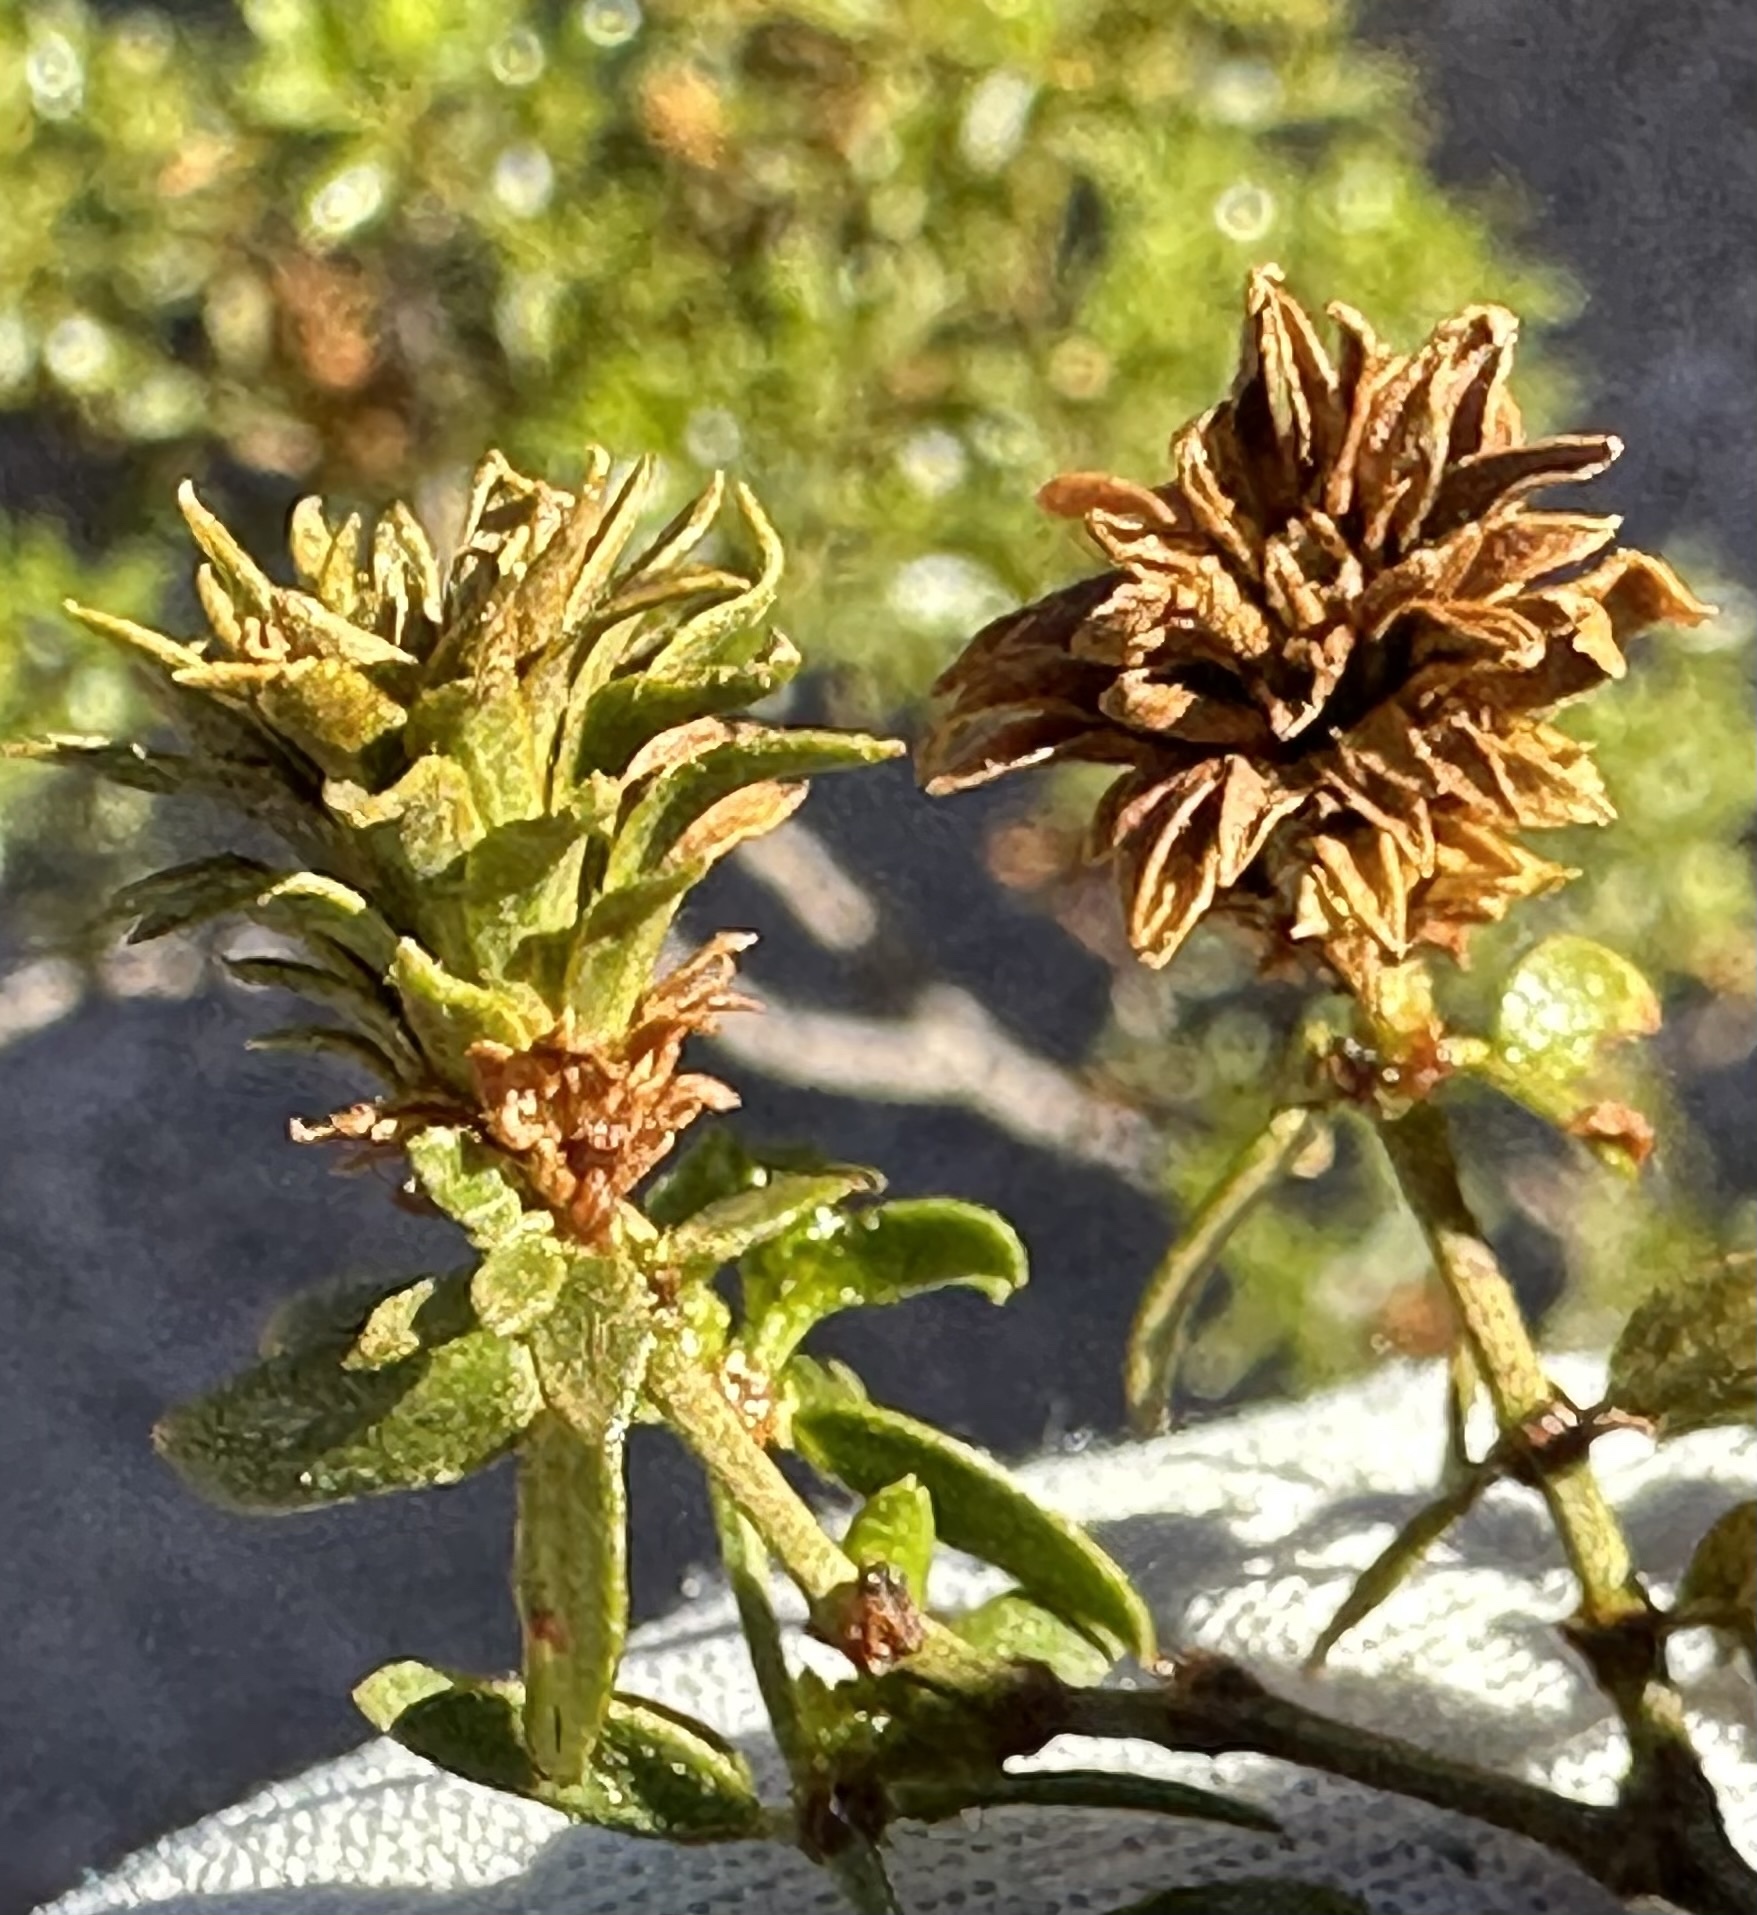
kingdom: Animalia
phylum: Arthropoda
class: Insecta
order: Diptera
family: Cecidomyiidae
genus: Asphondylia
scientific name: Asphondylia rosetta
